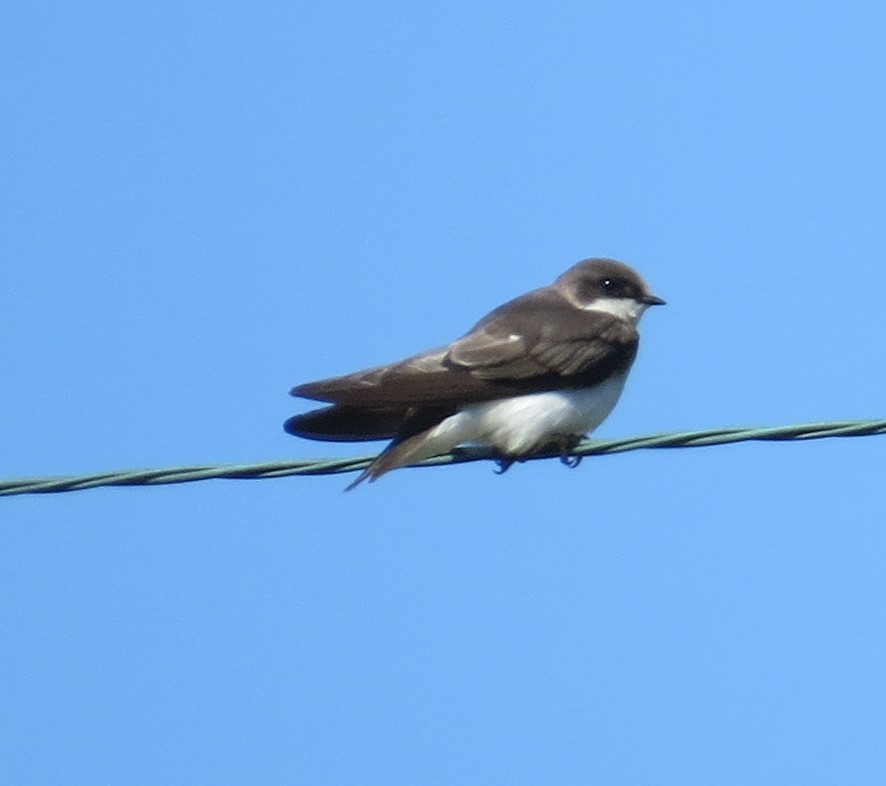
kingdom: Animalia
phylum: Chordata
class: Aves
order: Passeriformes
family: Hirundinidae
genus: Tachycineta
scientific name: Tachycineta bicolor
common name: Tree swallow
